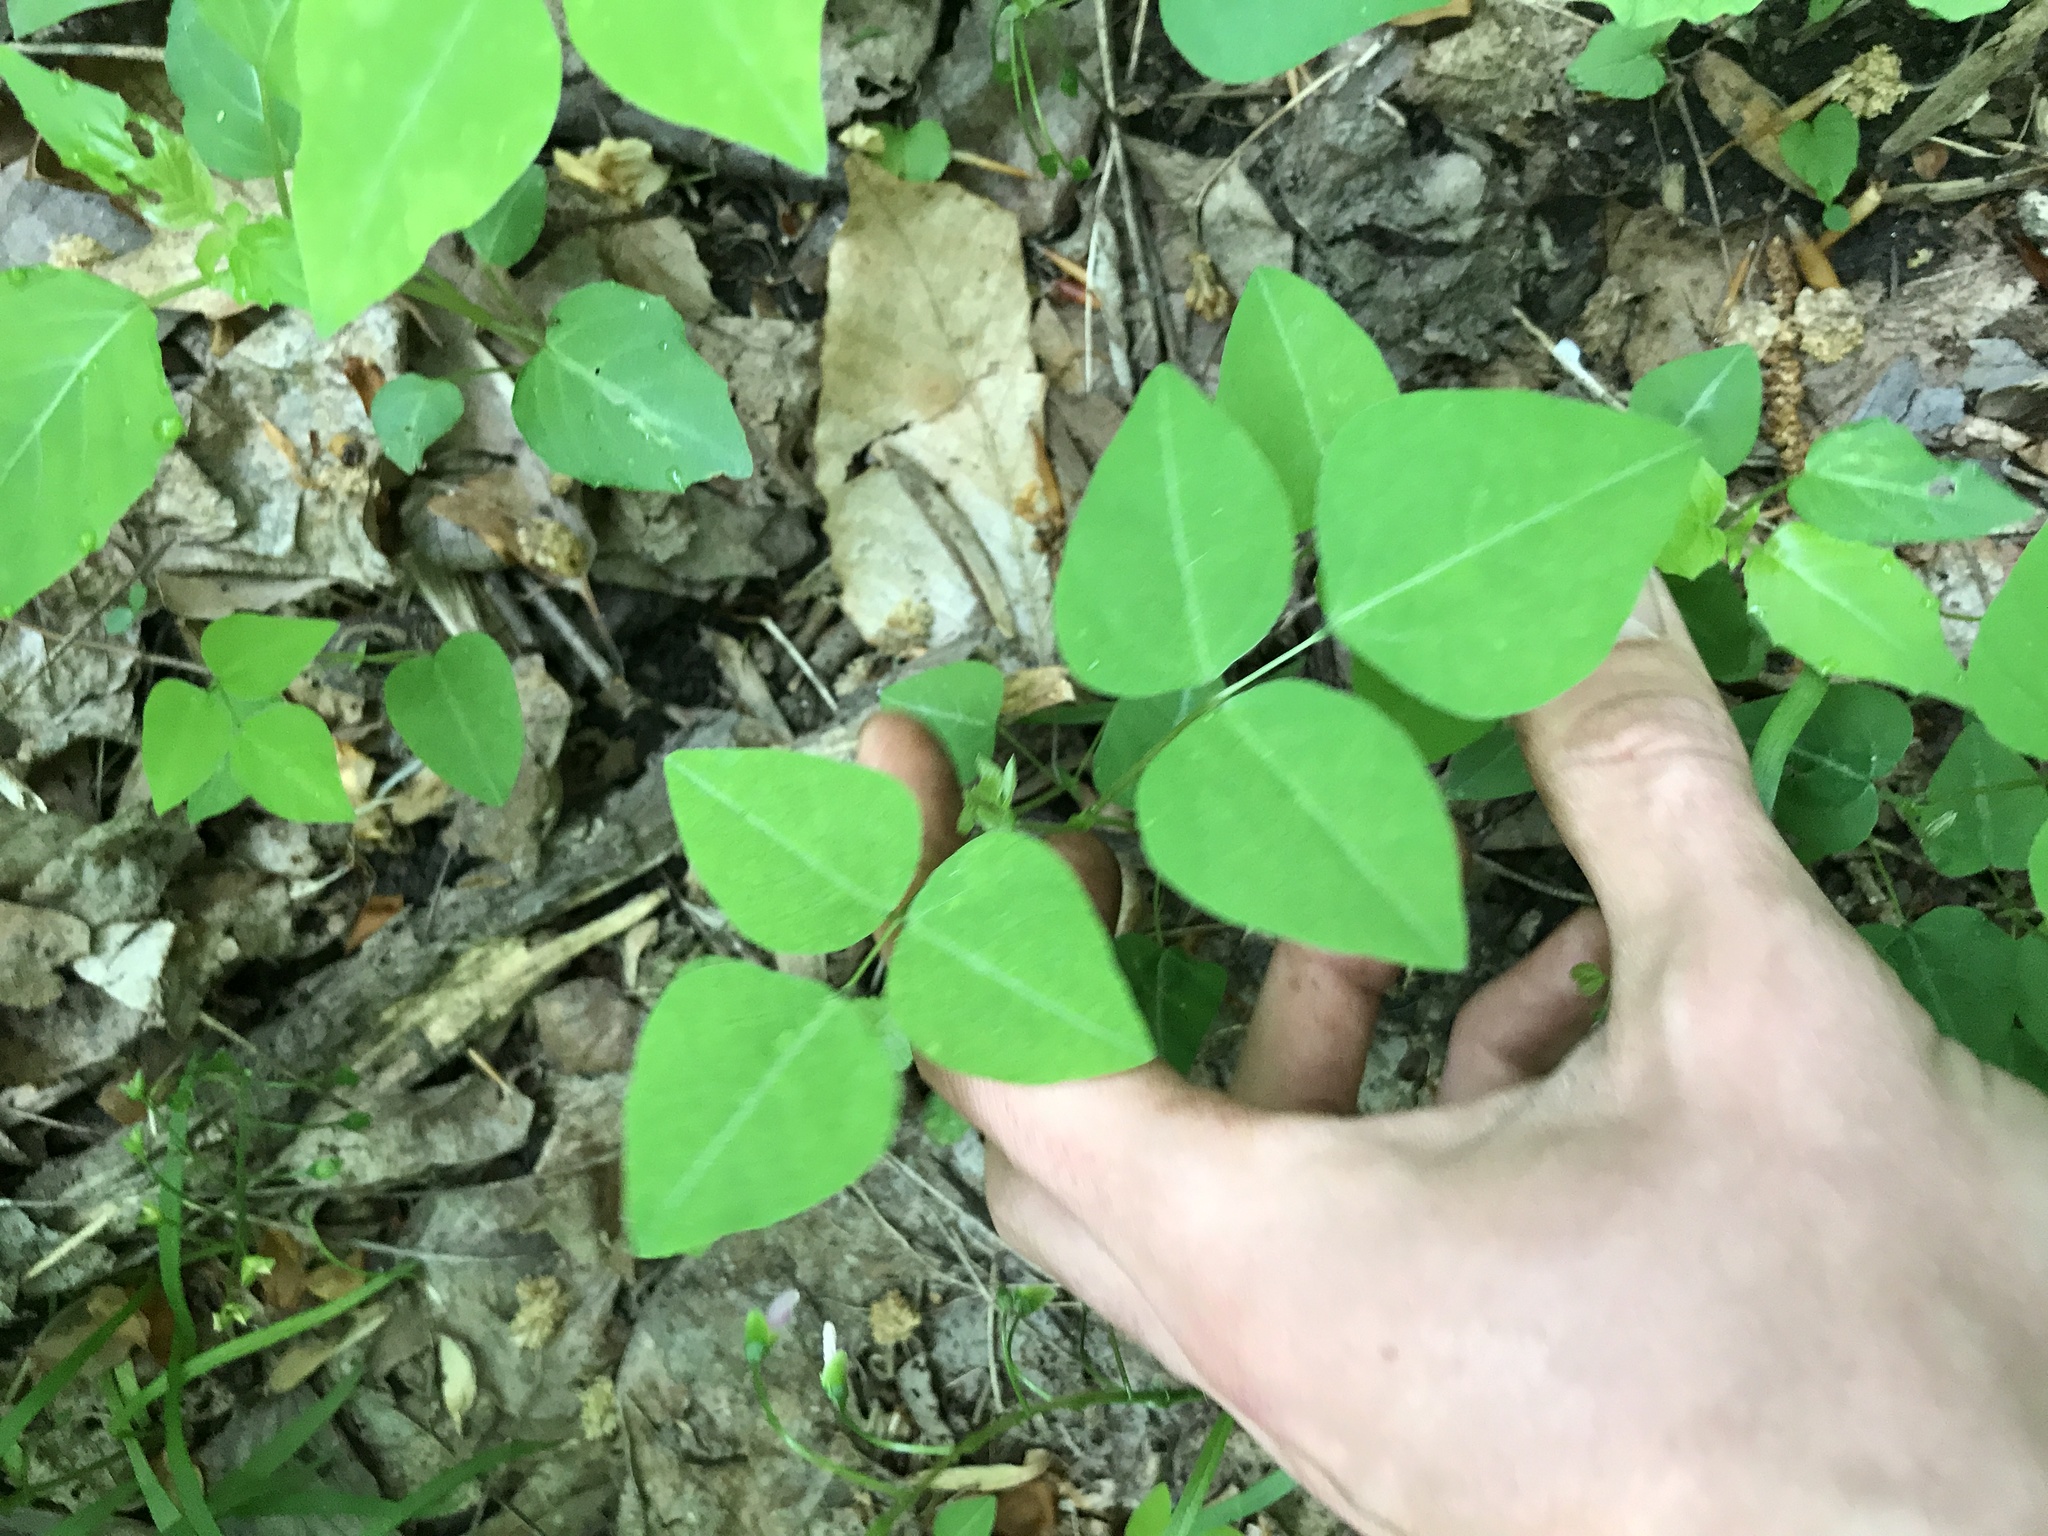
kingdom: Plantae
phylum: Tracheophyta
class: Magnoliopsida
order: Fabales
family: Fabaceae
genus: Amphicarpaea
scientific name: Amphicarpaea bracteata
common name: American hog peanut
